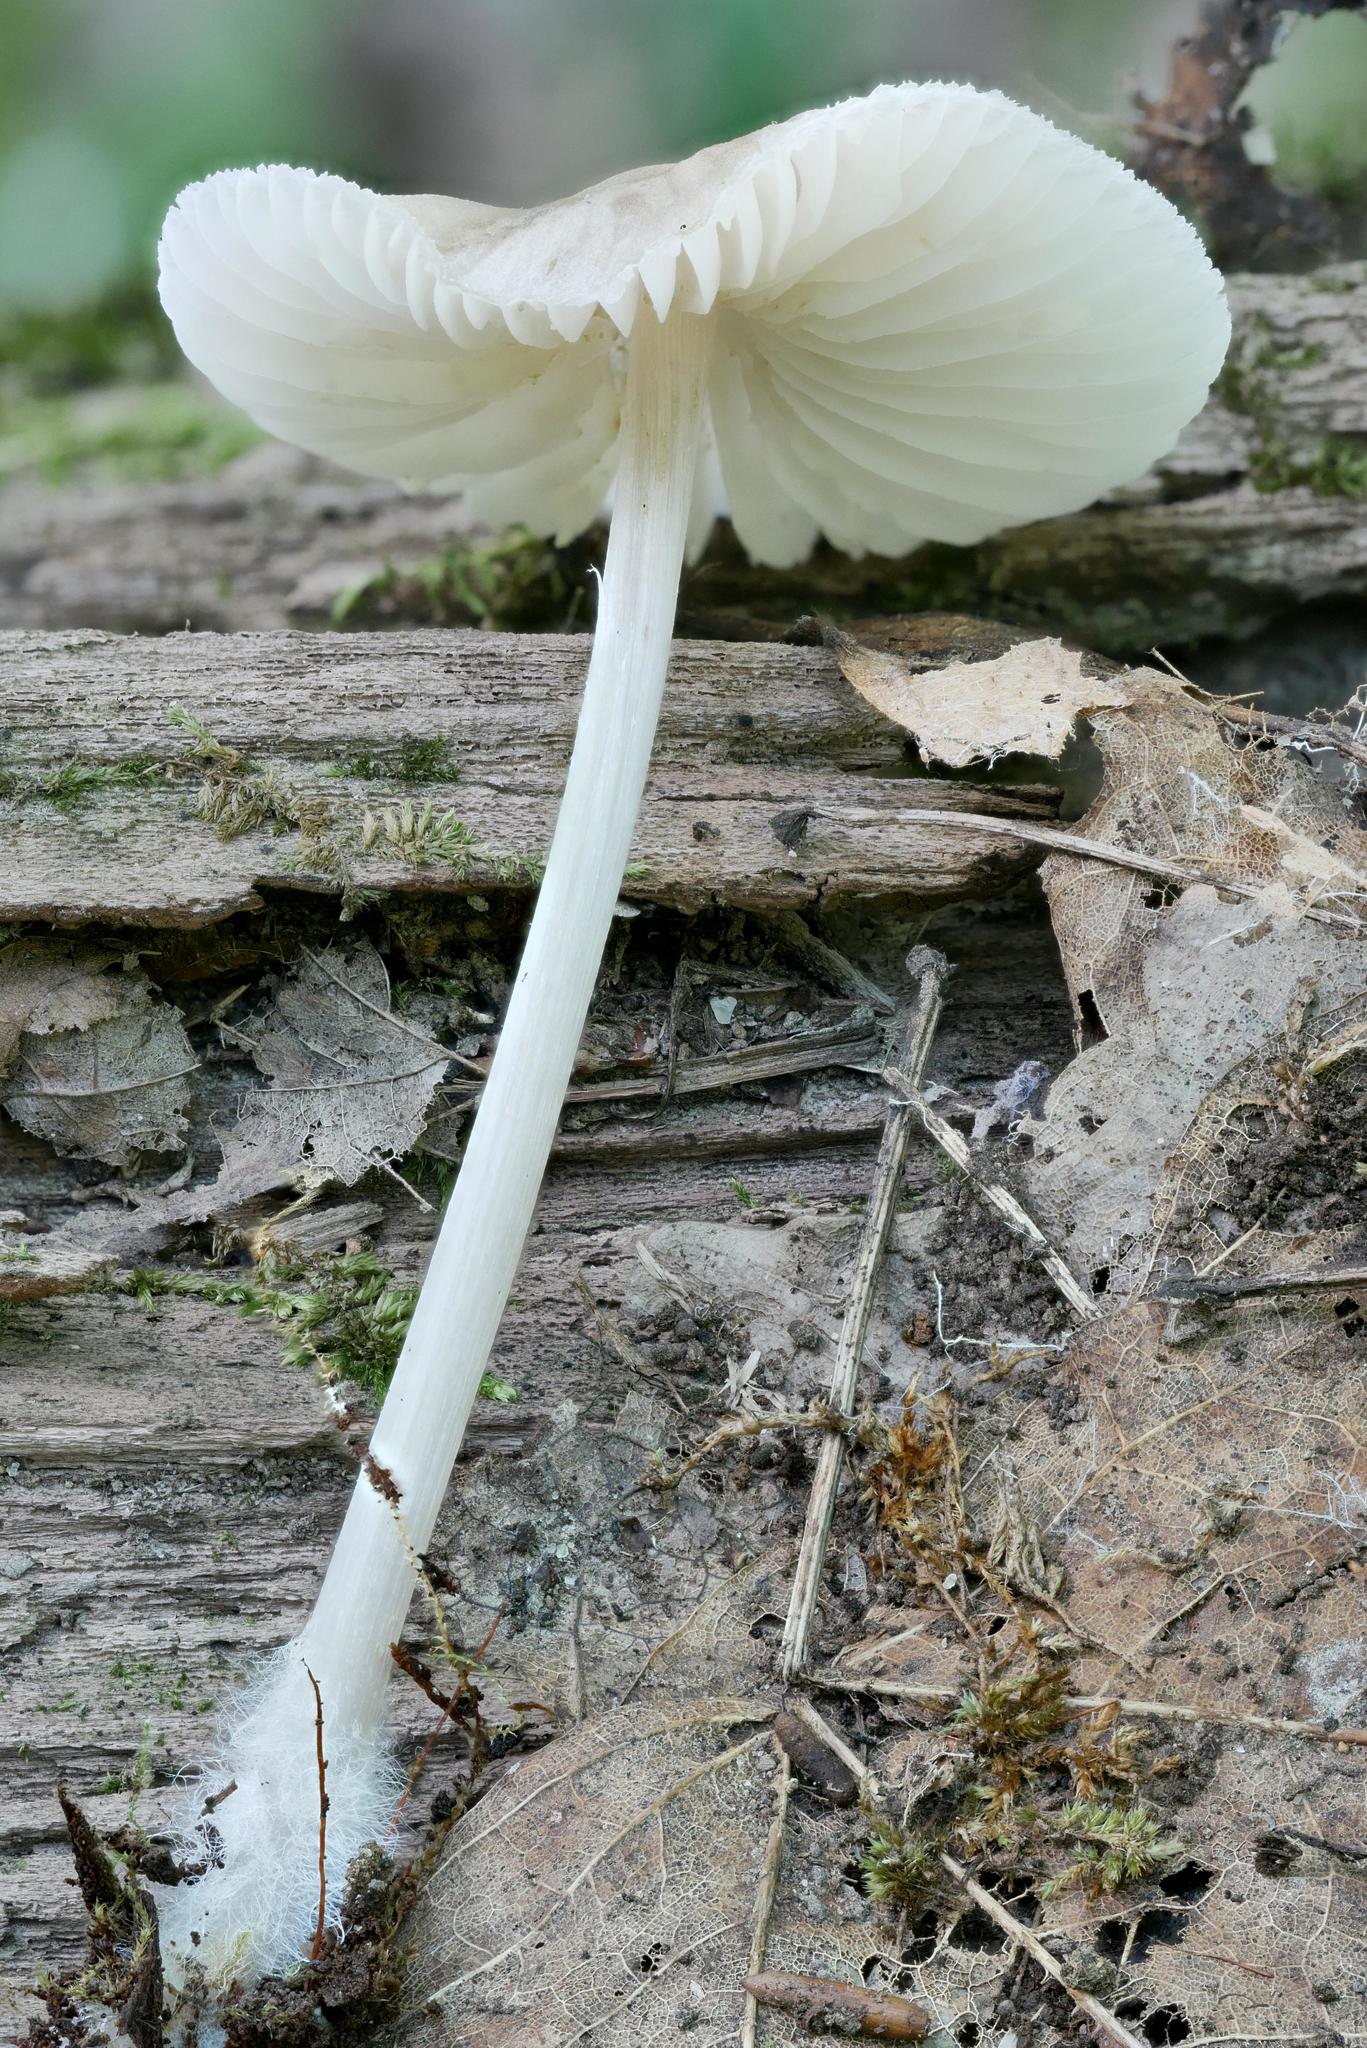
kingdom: Fungi
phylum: Basidiomycota
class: Agaricomycetes
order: Agaricales
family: Mycenaceae
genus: Mycena
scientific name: Mycena niveipes
